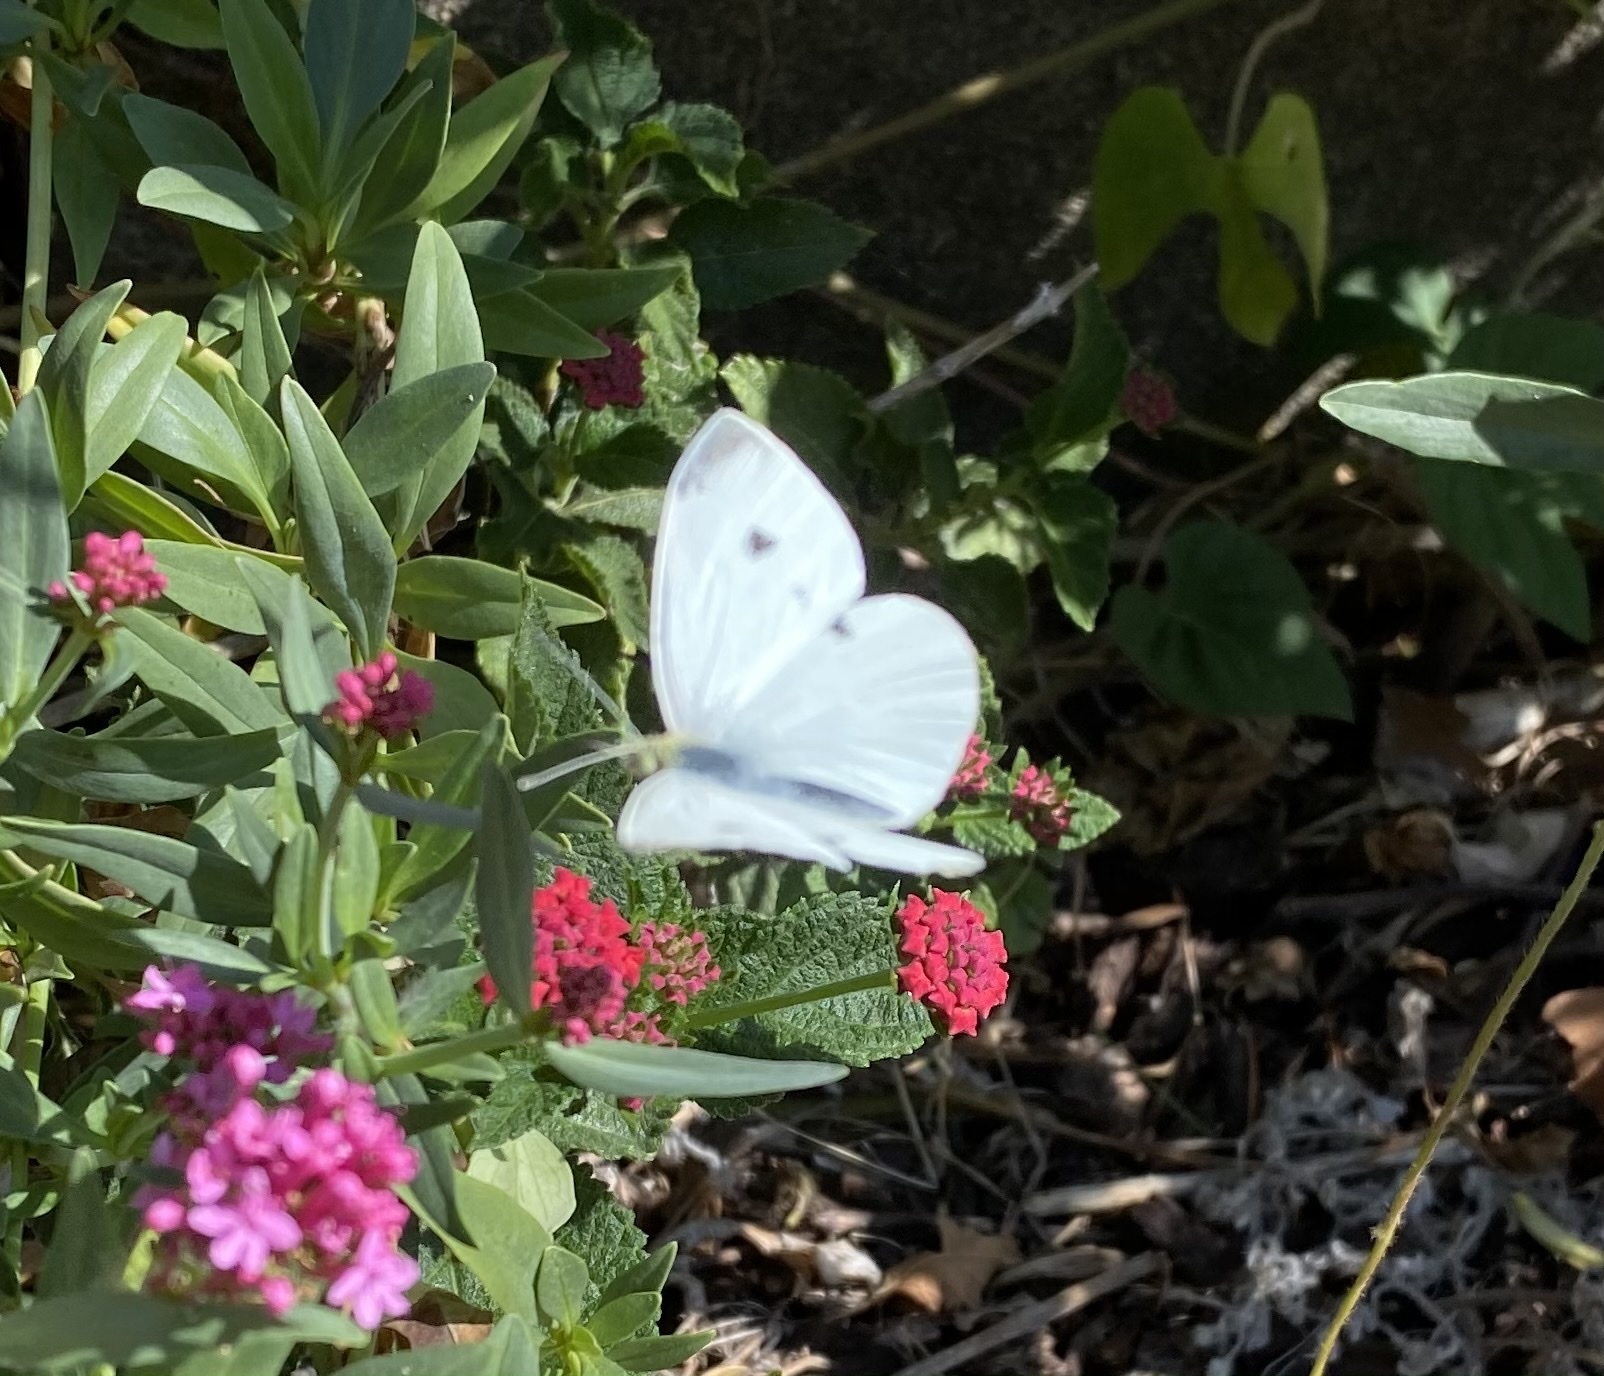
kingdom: Animalia
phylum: Arthropoda
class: Insecta
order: Lepidoptera
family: Pieridae
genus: Pieris
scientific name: Pieris rapae
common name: Small white
